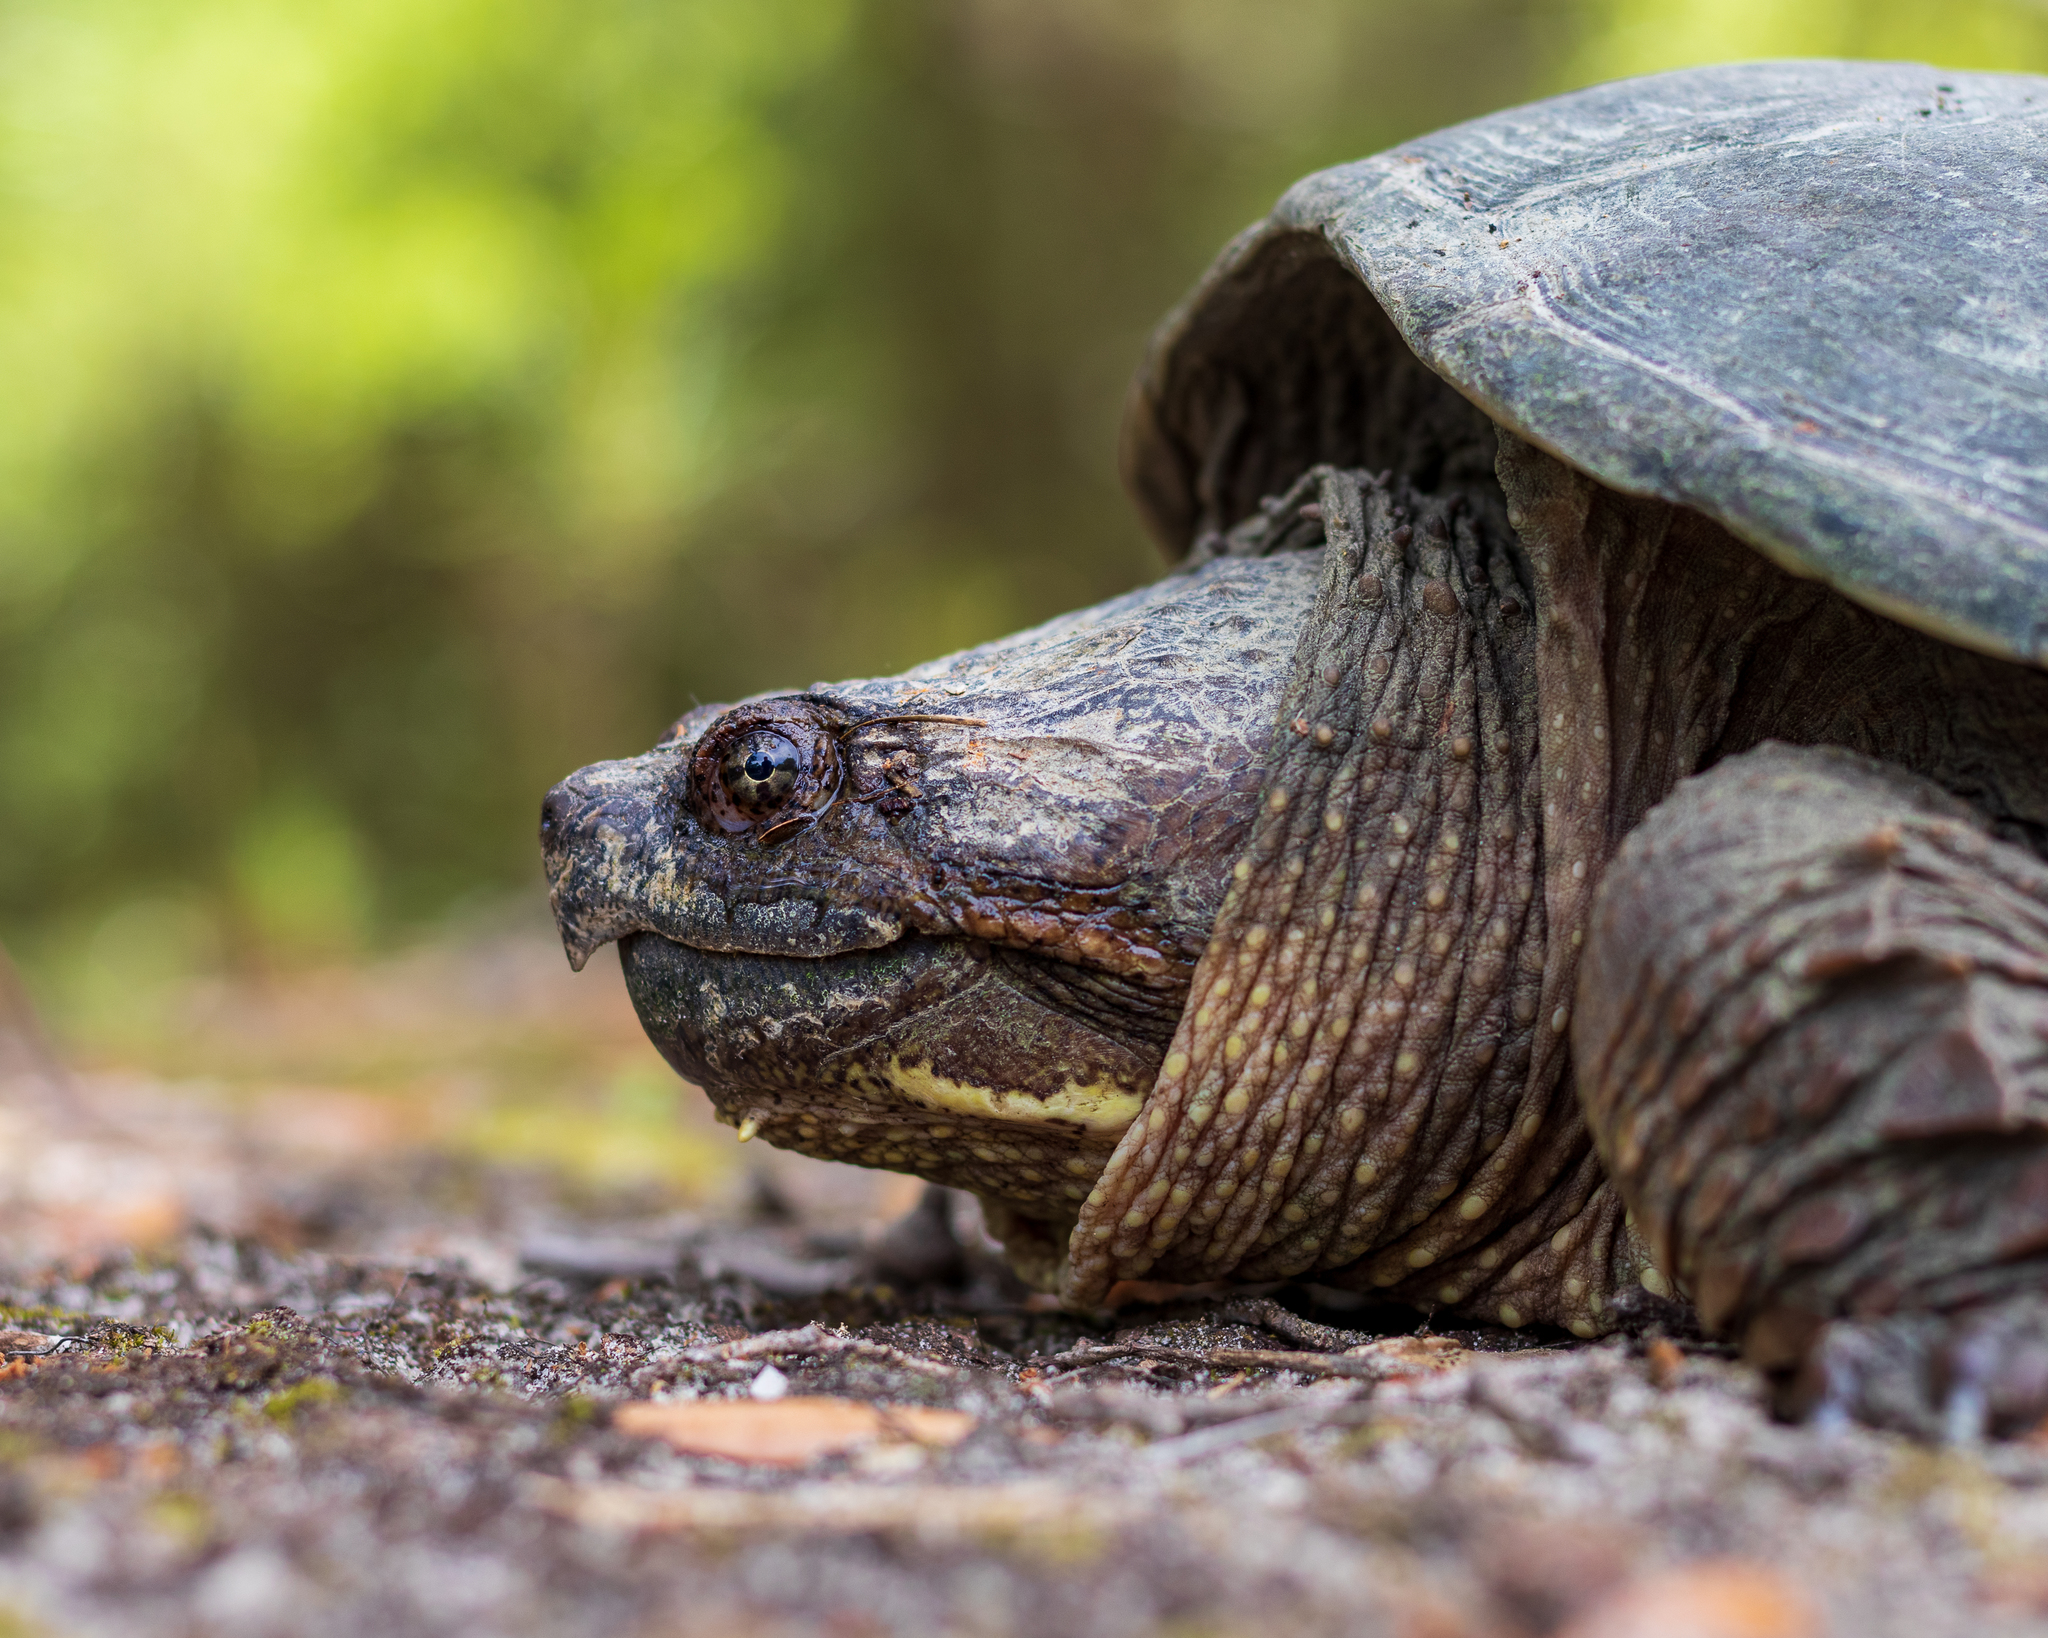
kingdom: Animalia
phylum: Chordata
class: Testudines
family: Chelydridae
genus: Chelydra
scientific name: Chelydra serpentina
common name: Common snapping turtle
